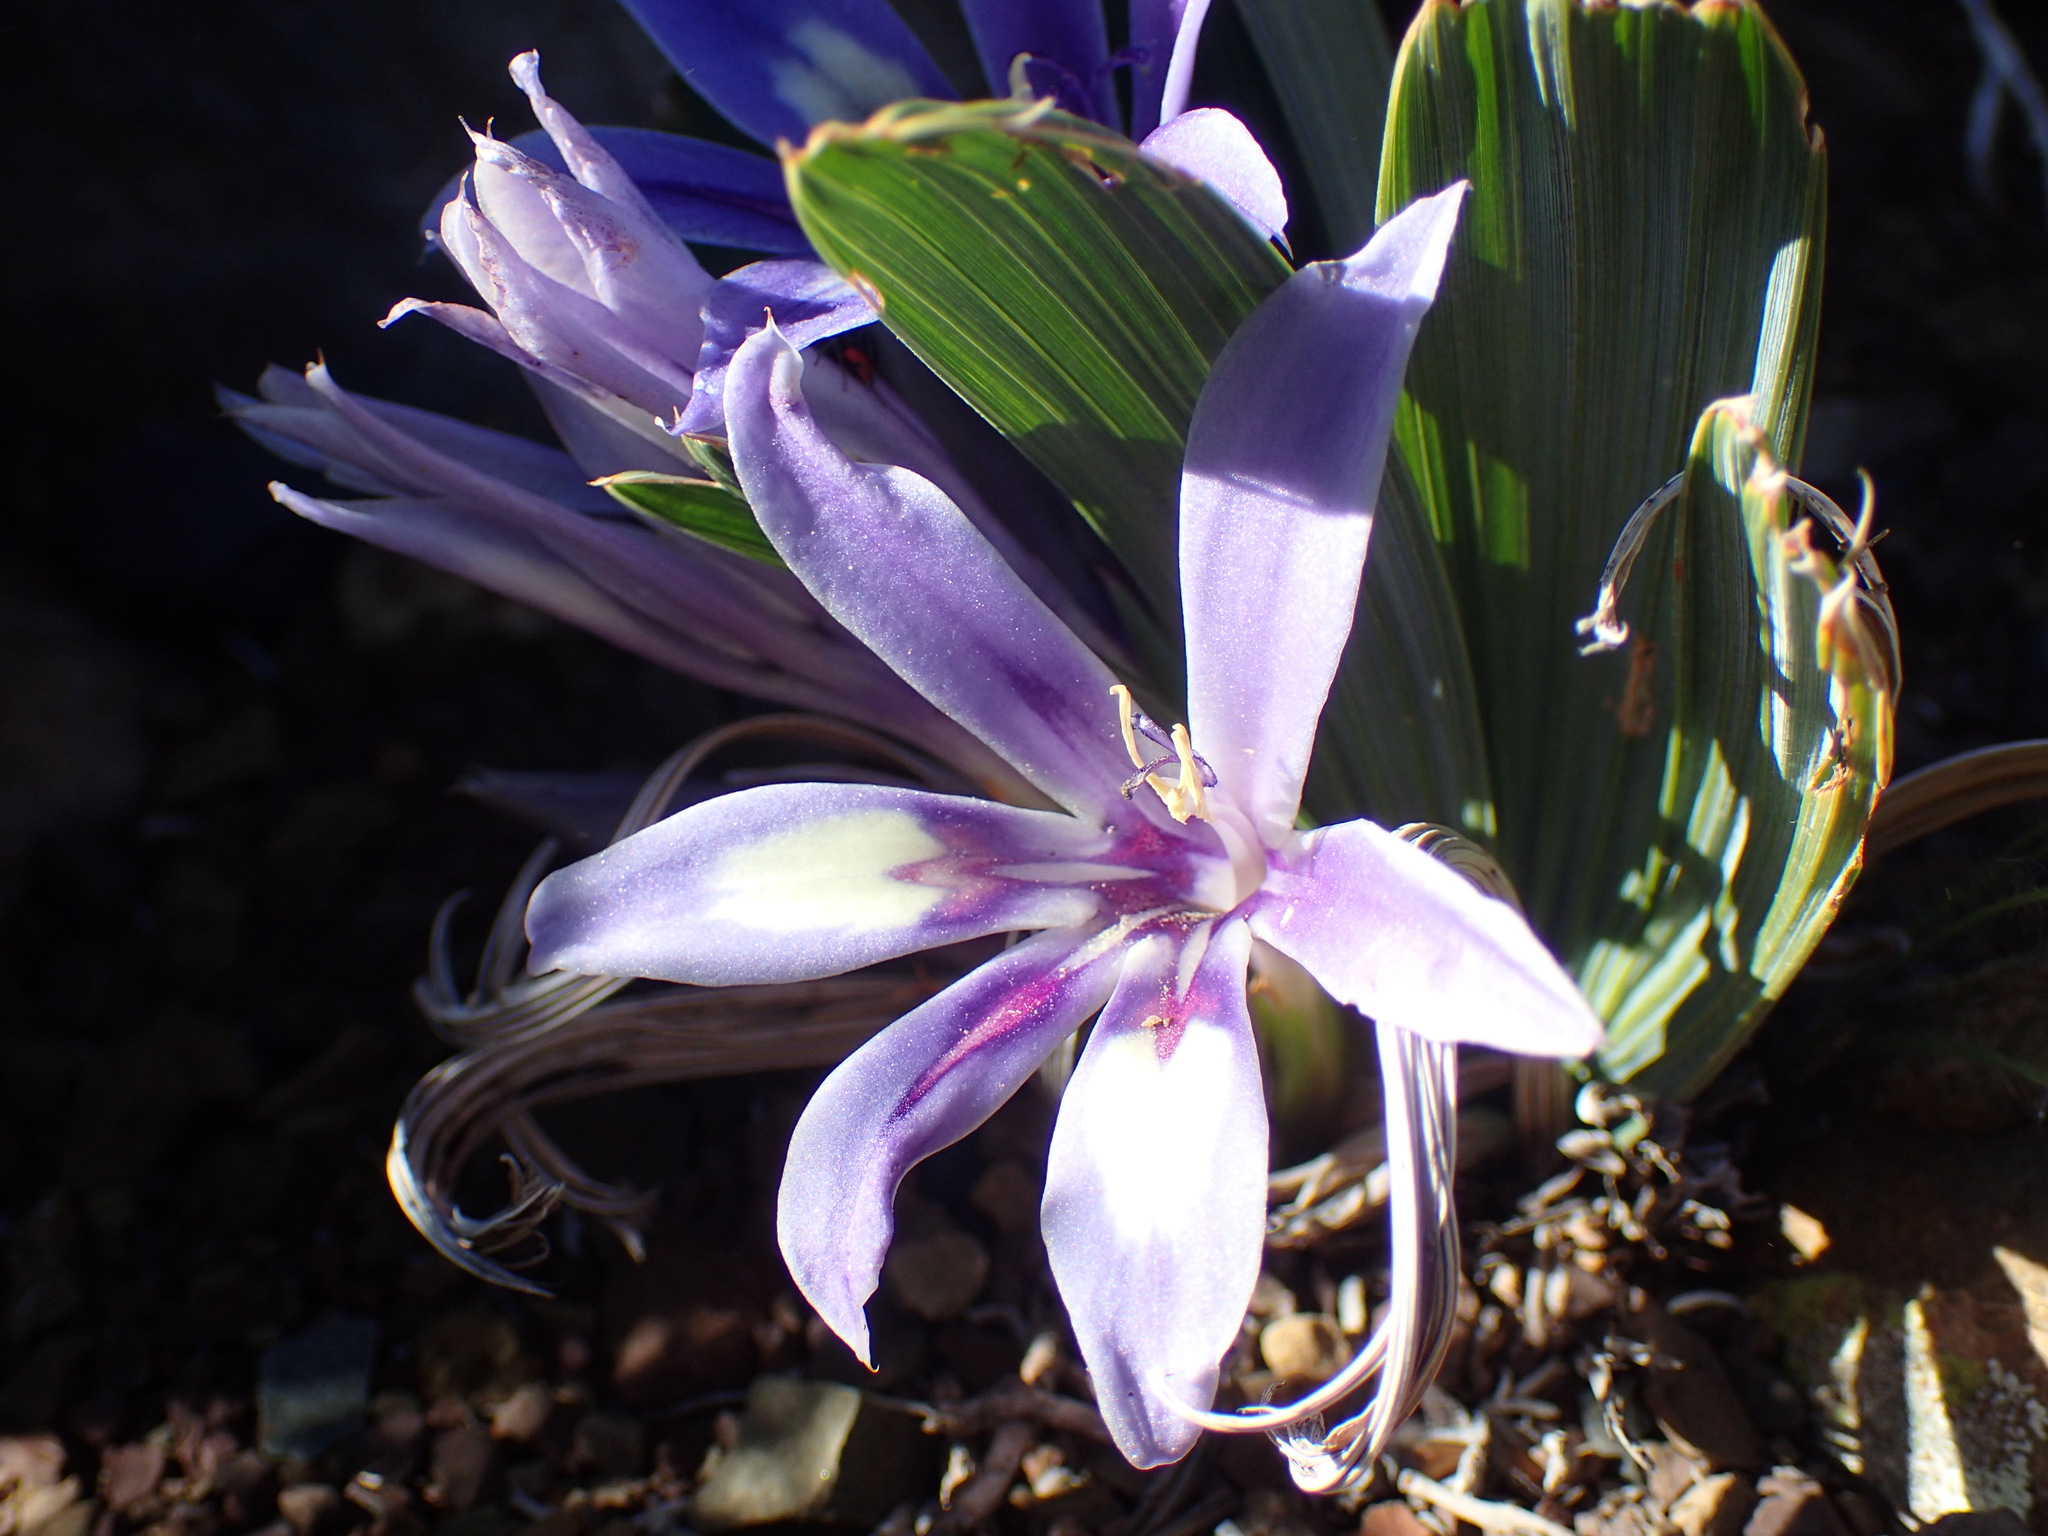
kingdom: Plantae
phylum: Tracheophyta
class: Liliopsida
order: Asparagales
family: Iridaceae
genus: Babiana
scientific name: Babiana cuneata
